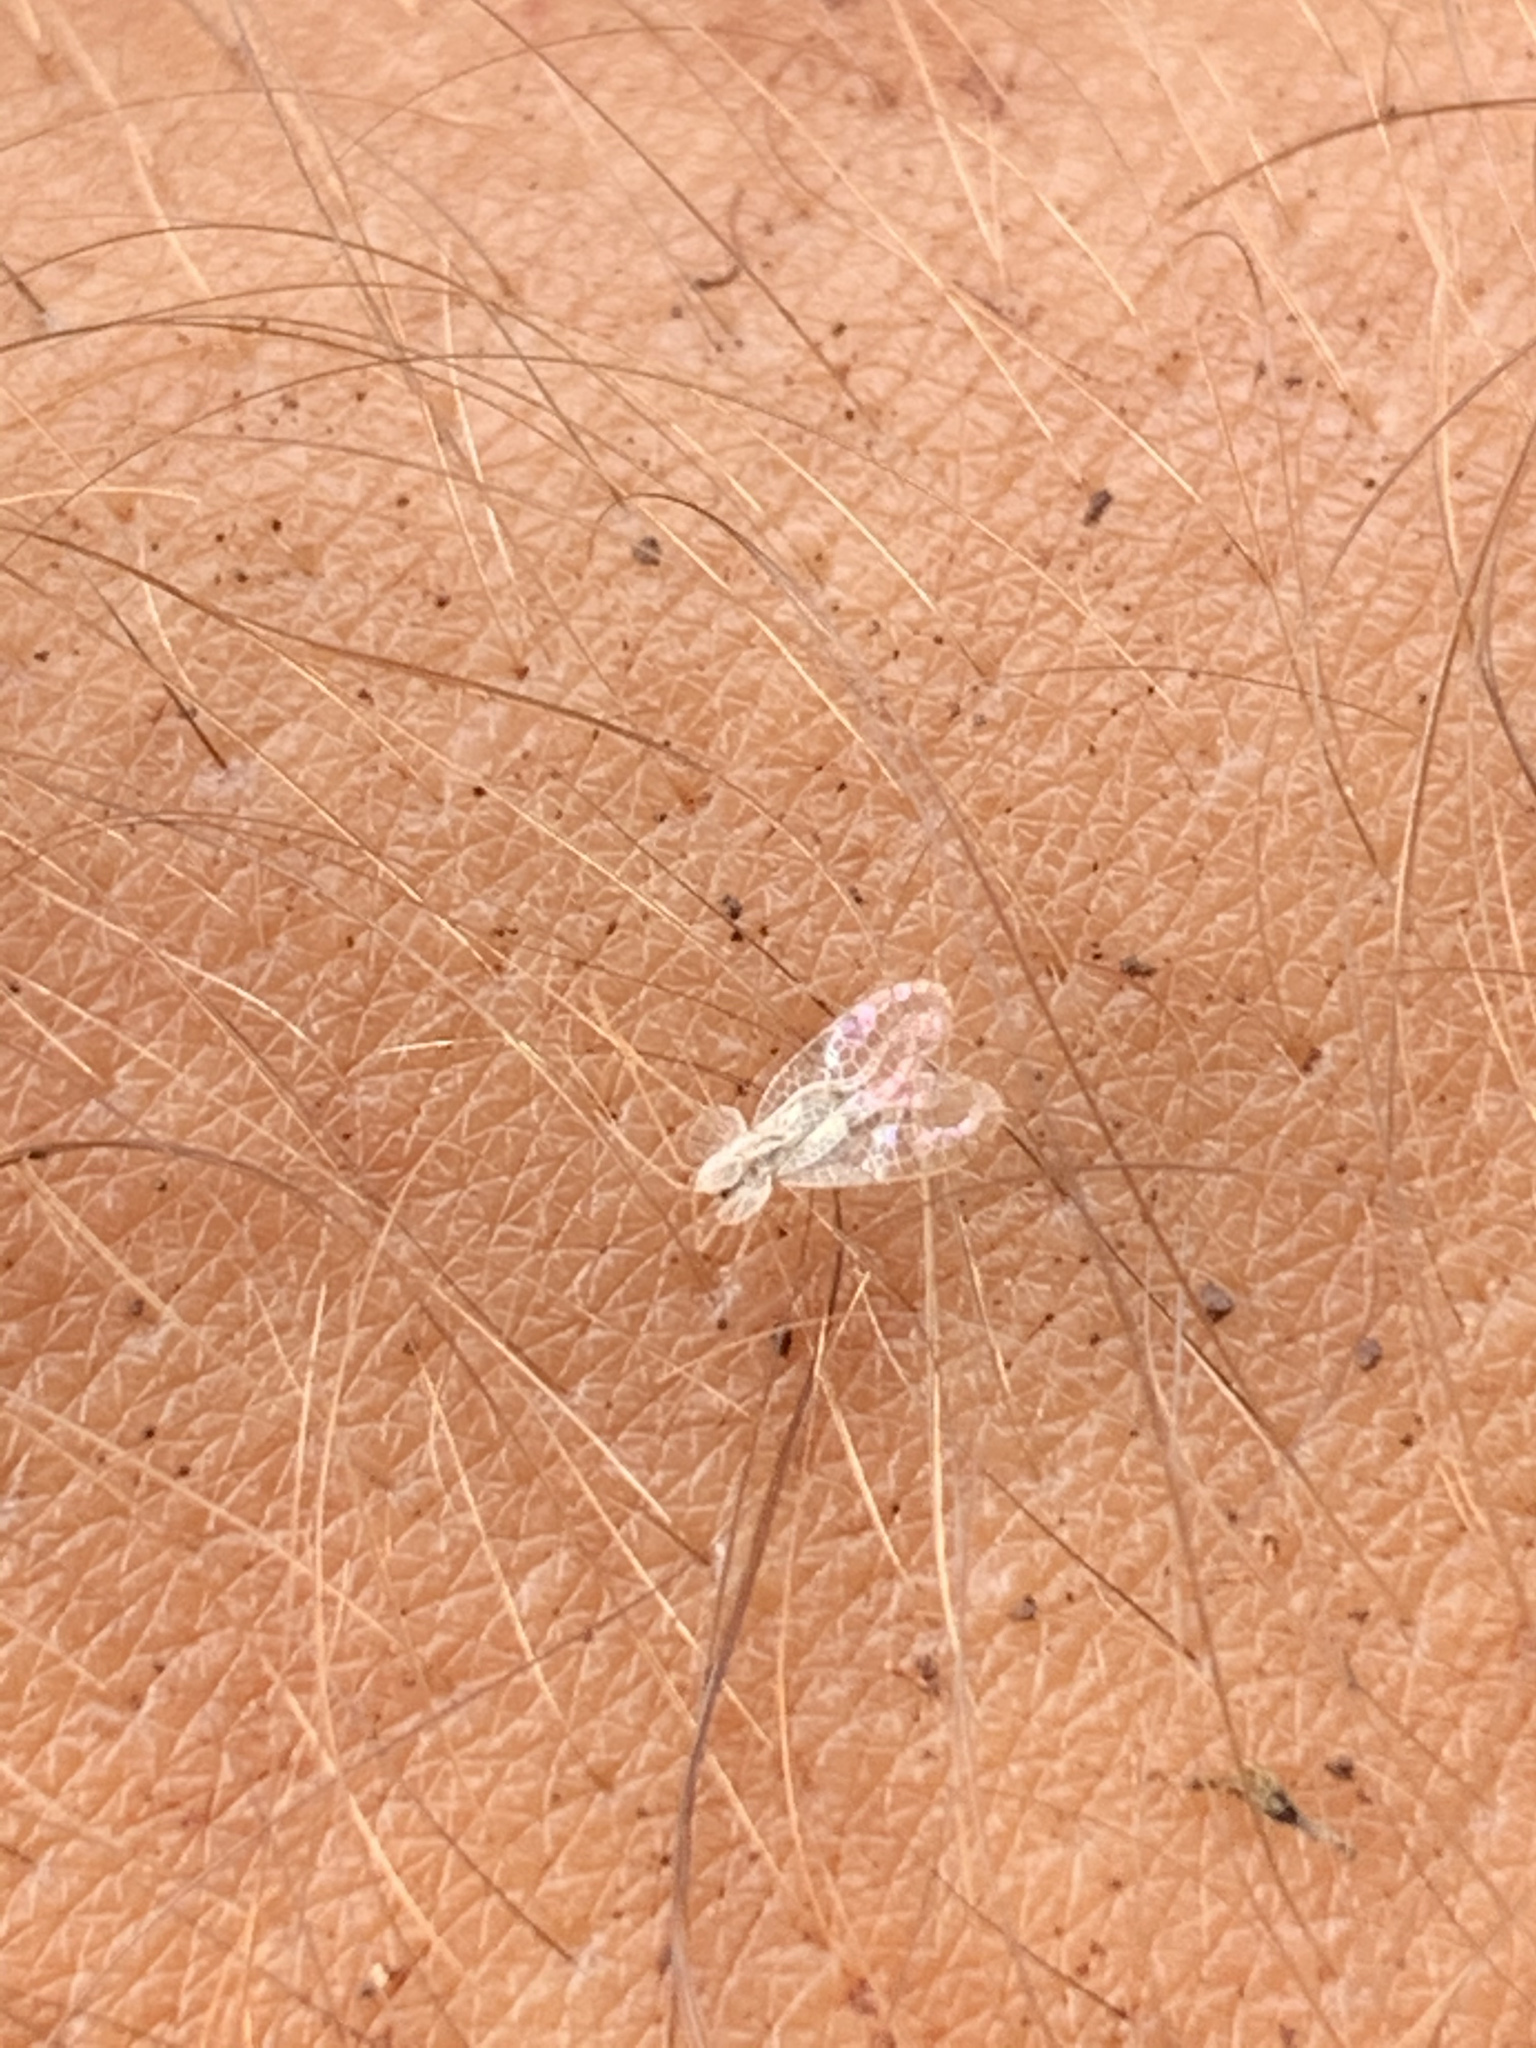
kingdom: Animalia
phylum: Arthropoda
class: Insecta
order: Hemiptera
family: Tingidae
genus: Stephanitis
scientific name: Stephanitis typica
